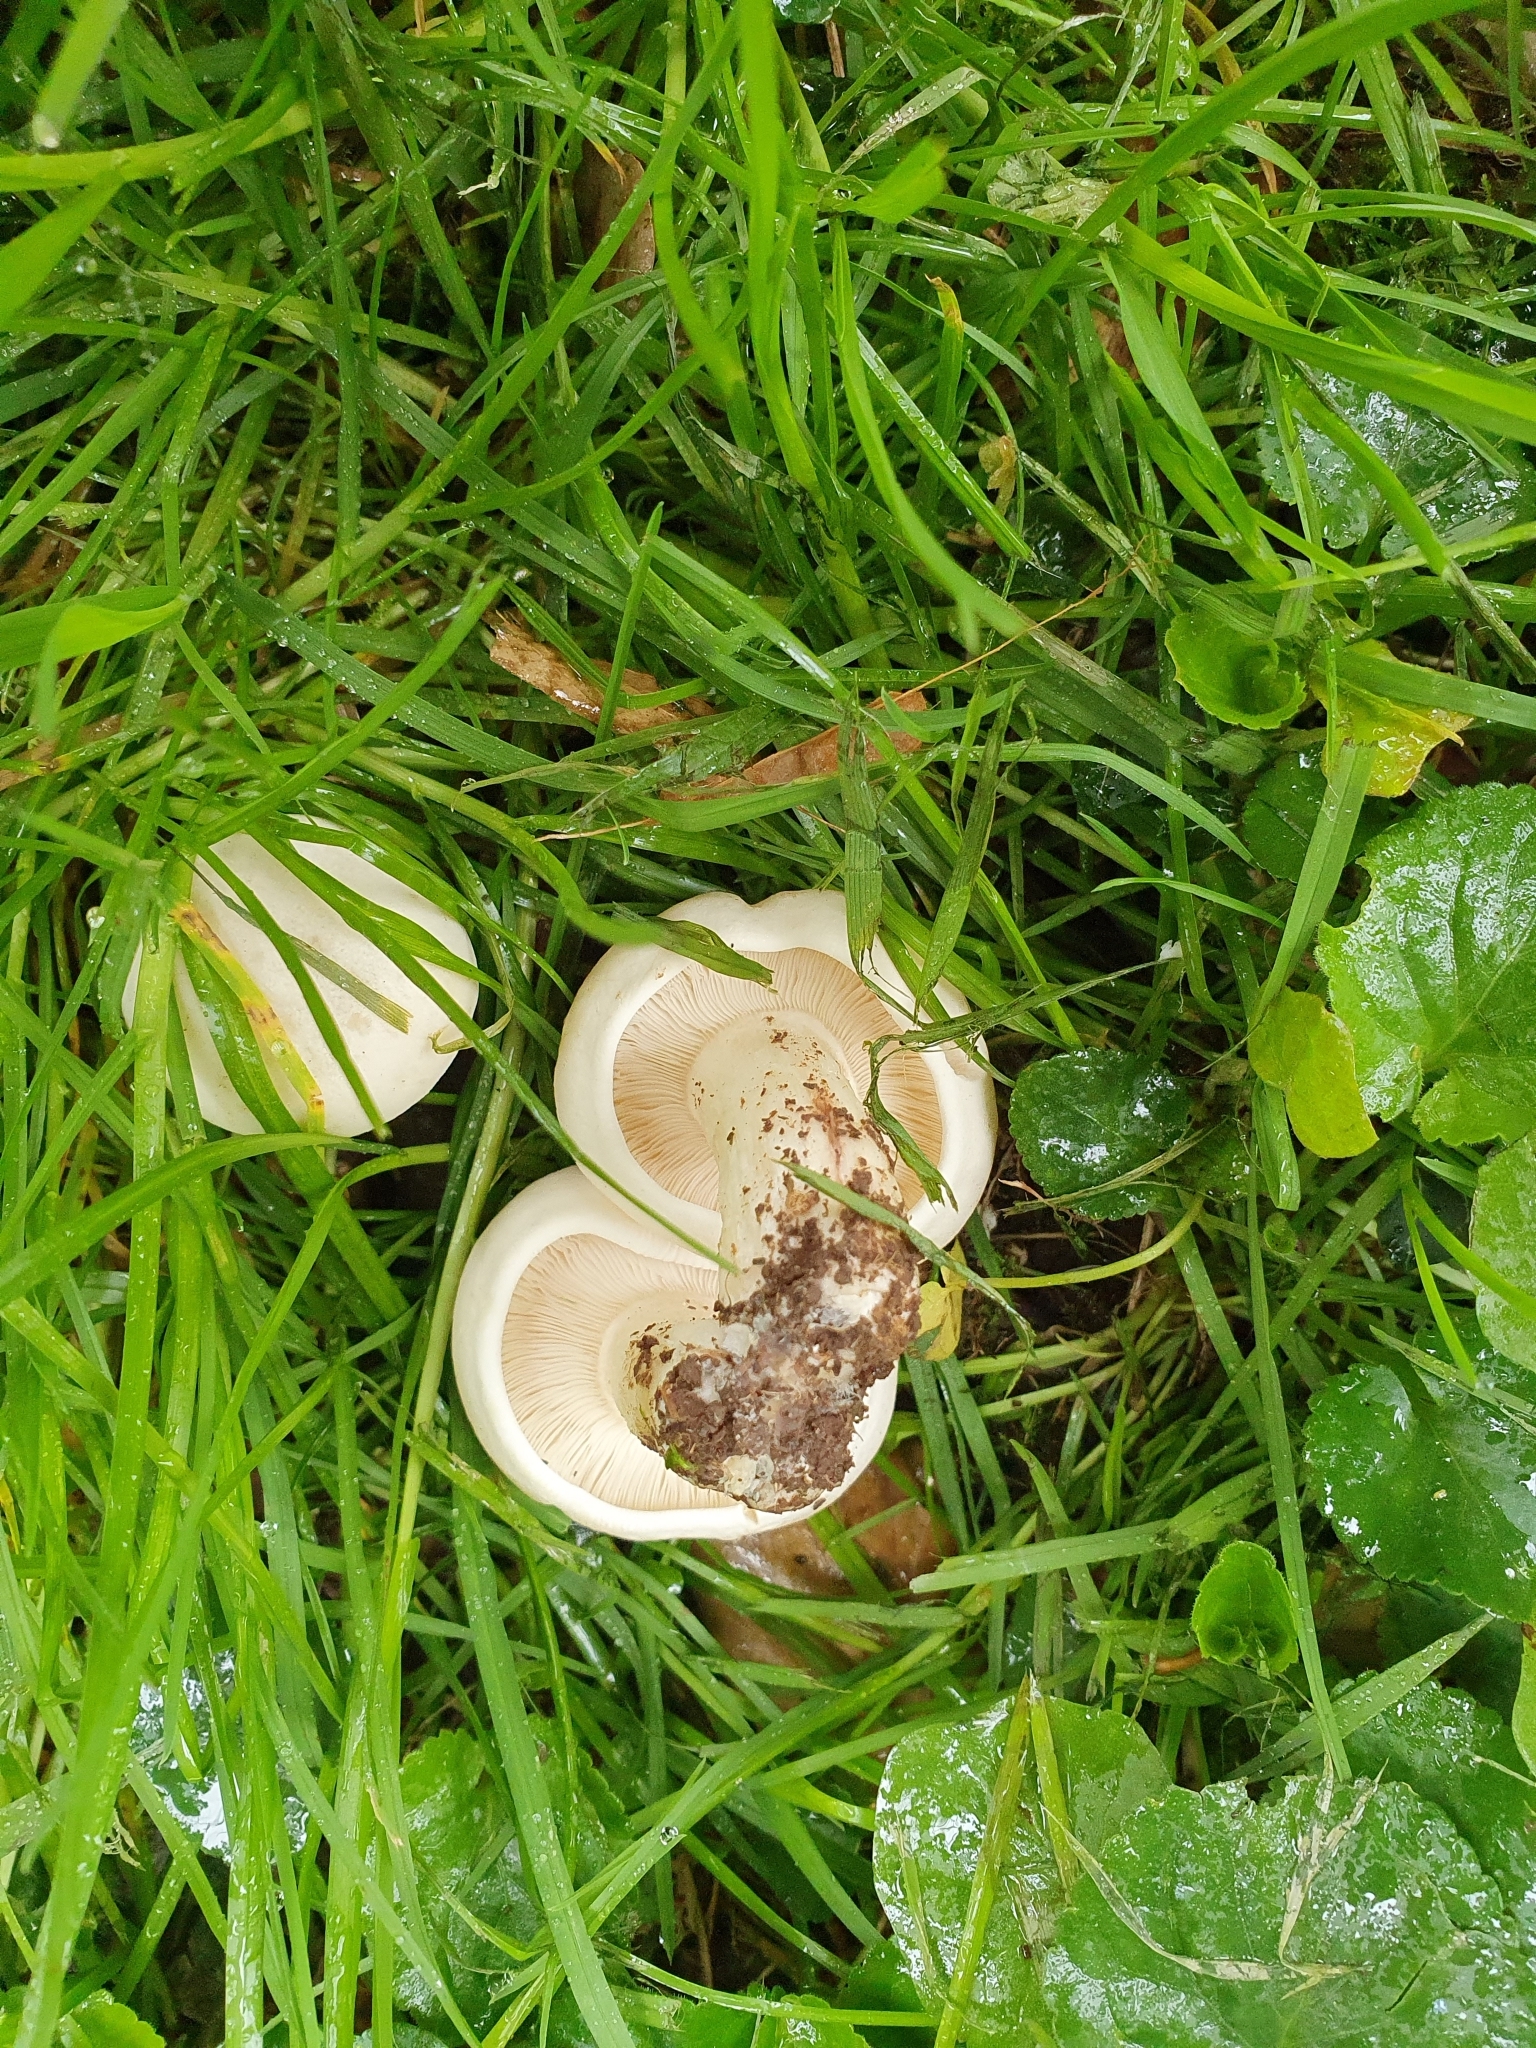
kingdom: Fungi
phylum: Basidiomycota
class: Agaricomycetes
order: Agaricales
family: Lyophyllaceae
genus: Calocybe
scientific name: Calocybe gambosa
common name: St. george's mushroom
